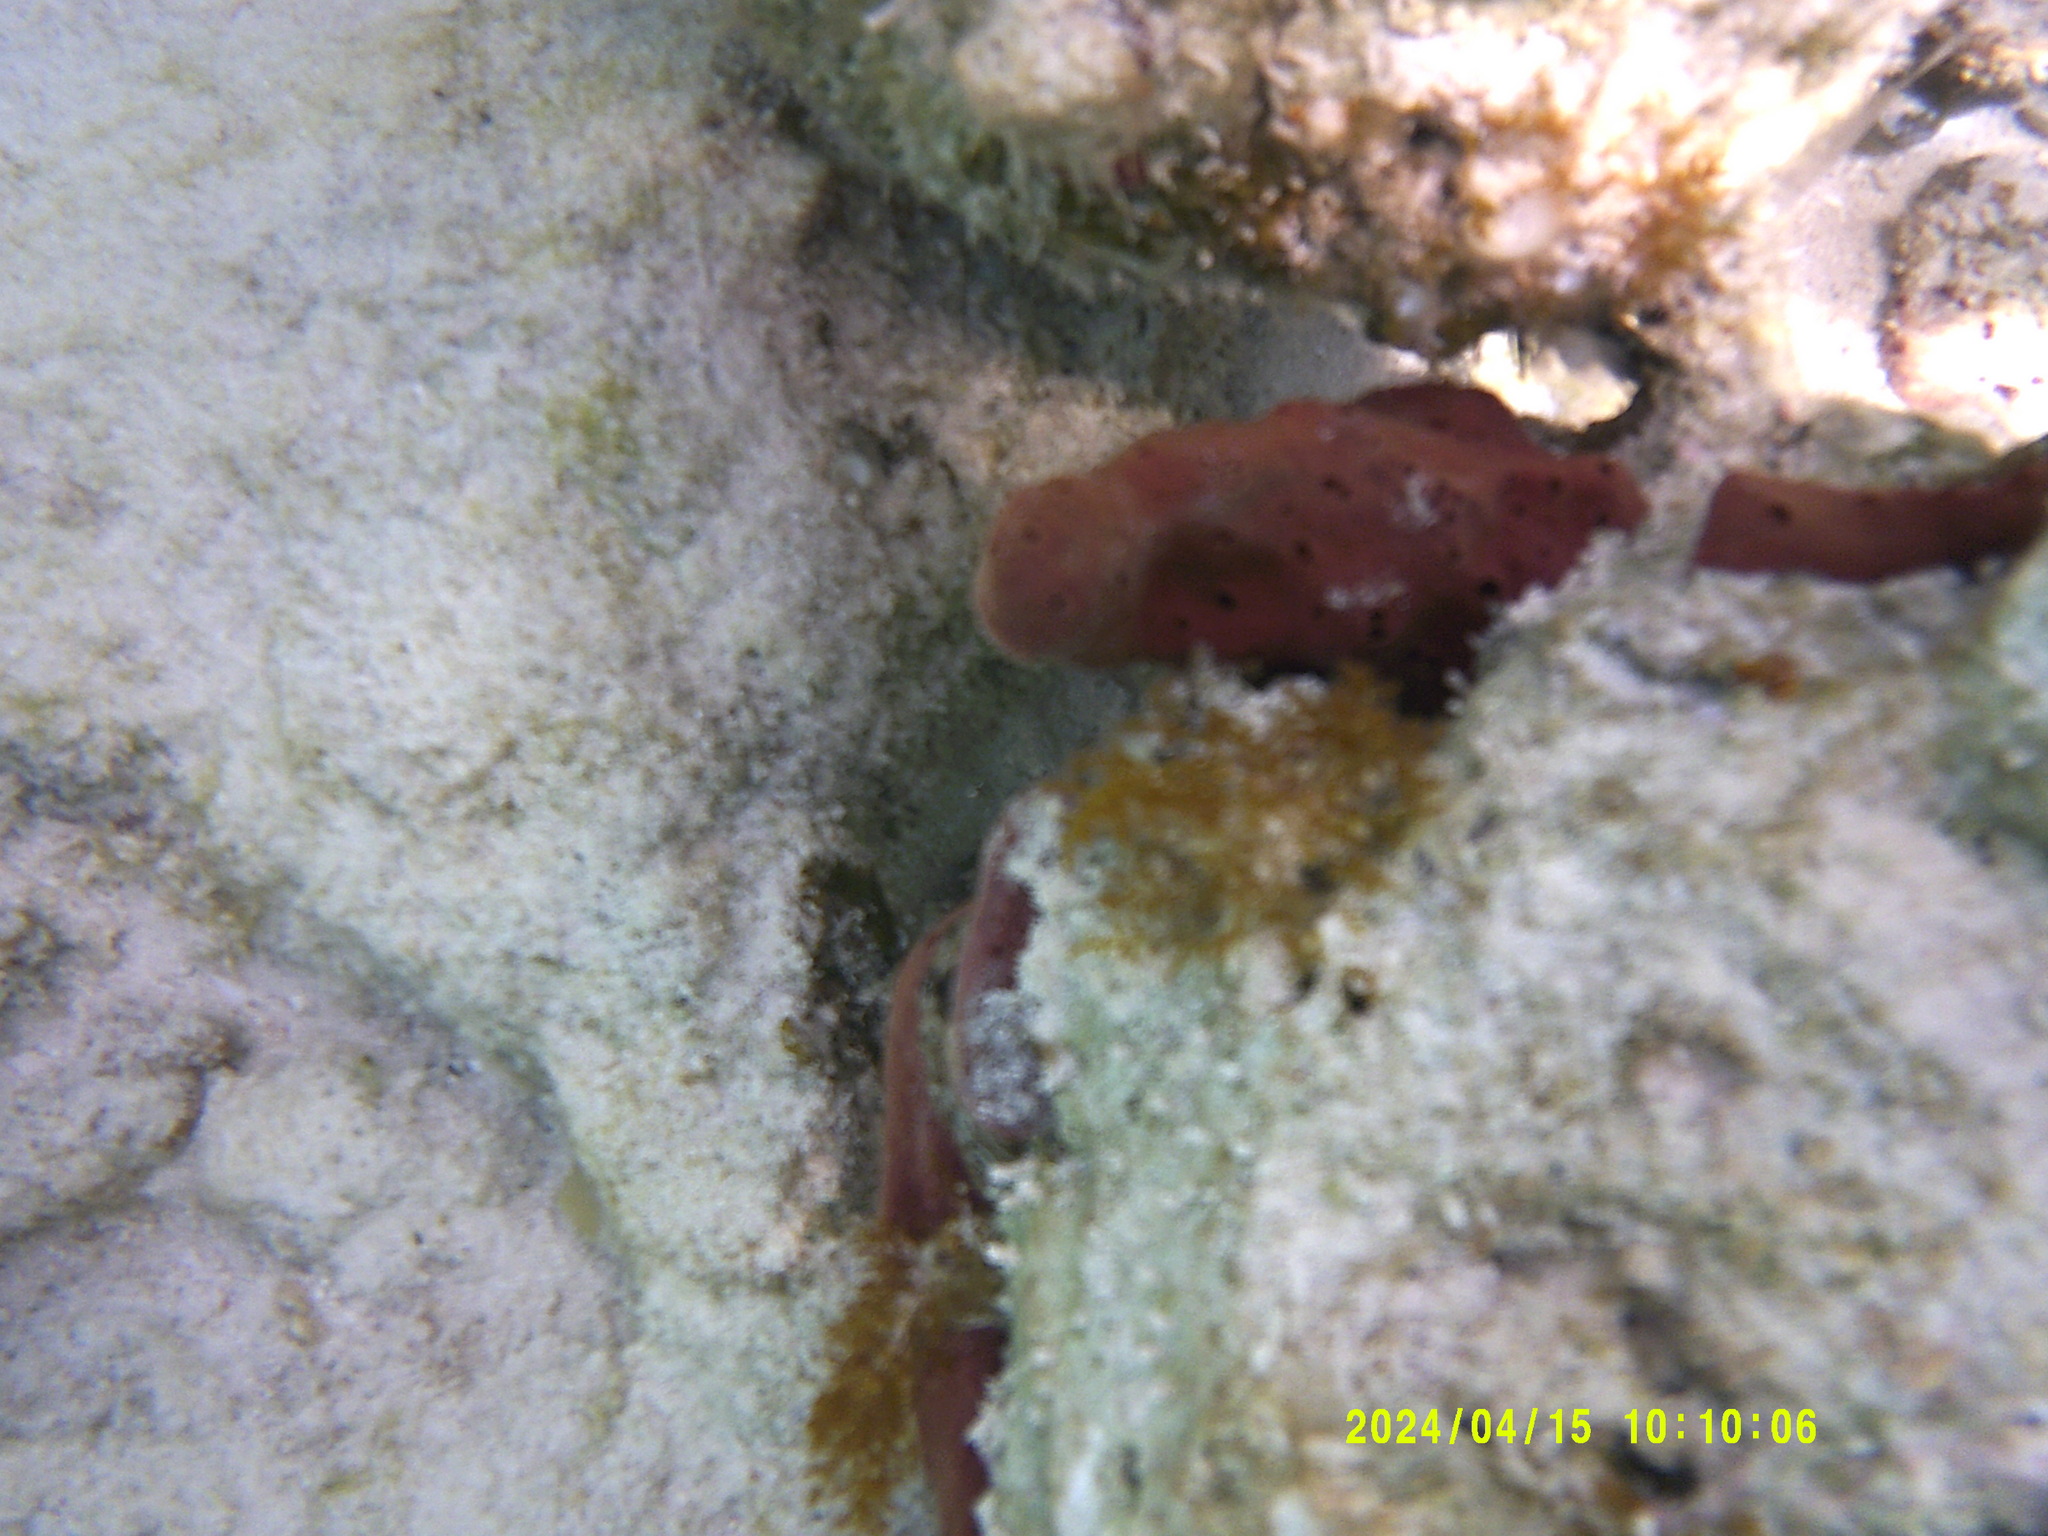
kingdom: Animalia
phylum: Porifera
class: Demospongiae
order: Haplosclerida
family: Niphatidae
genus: Amphimedon
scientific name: Amphimedon compressa
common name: Red sponge
